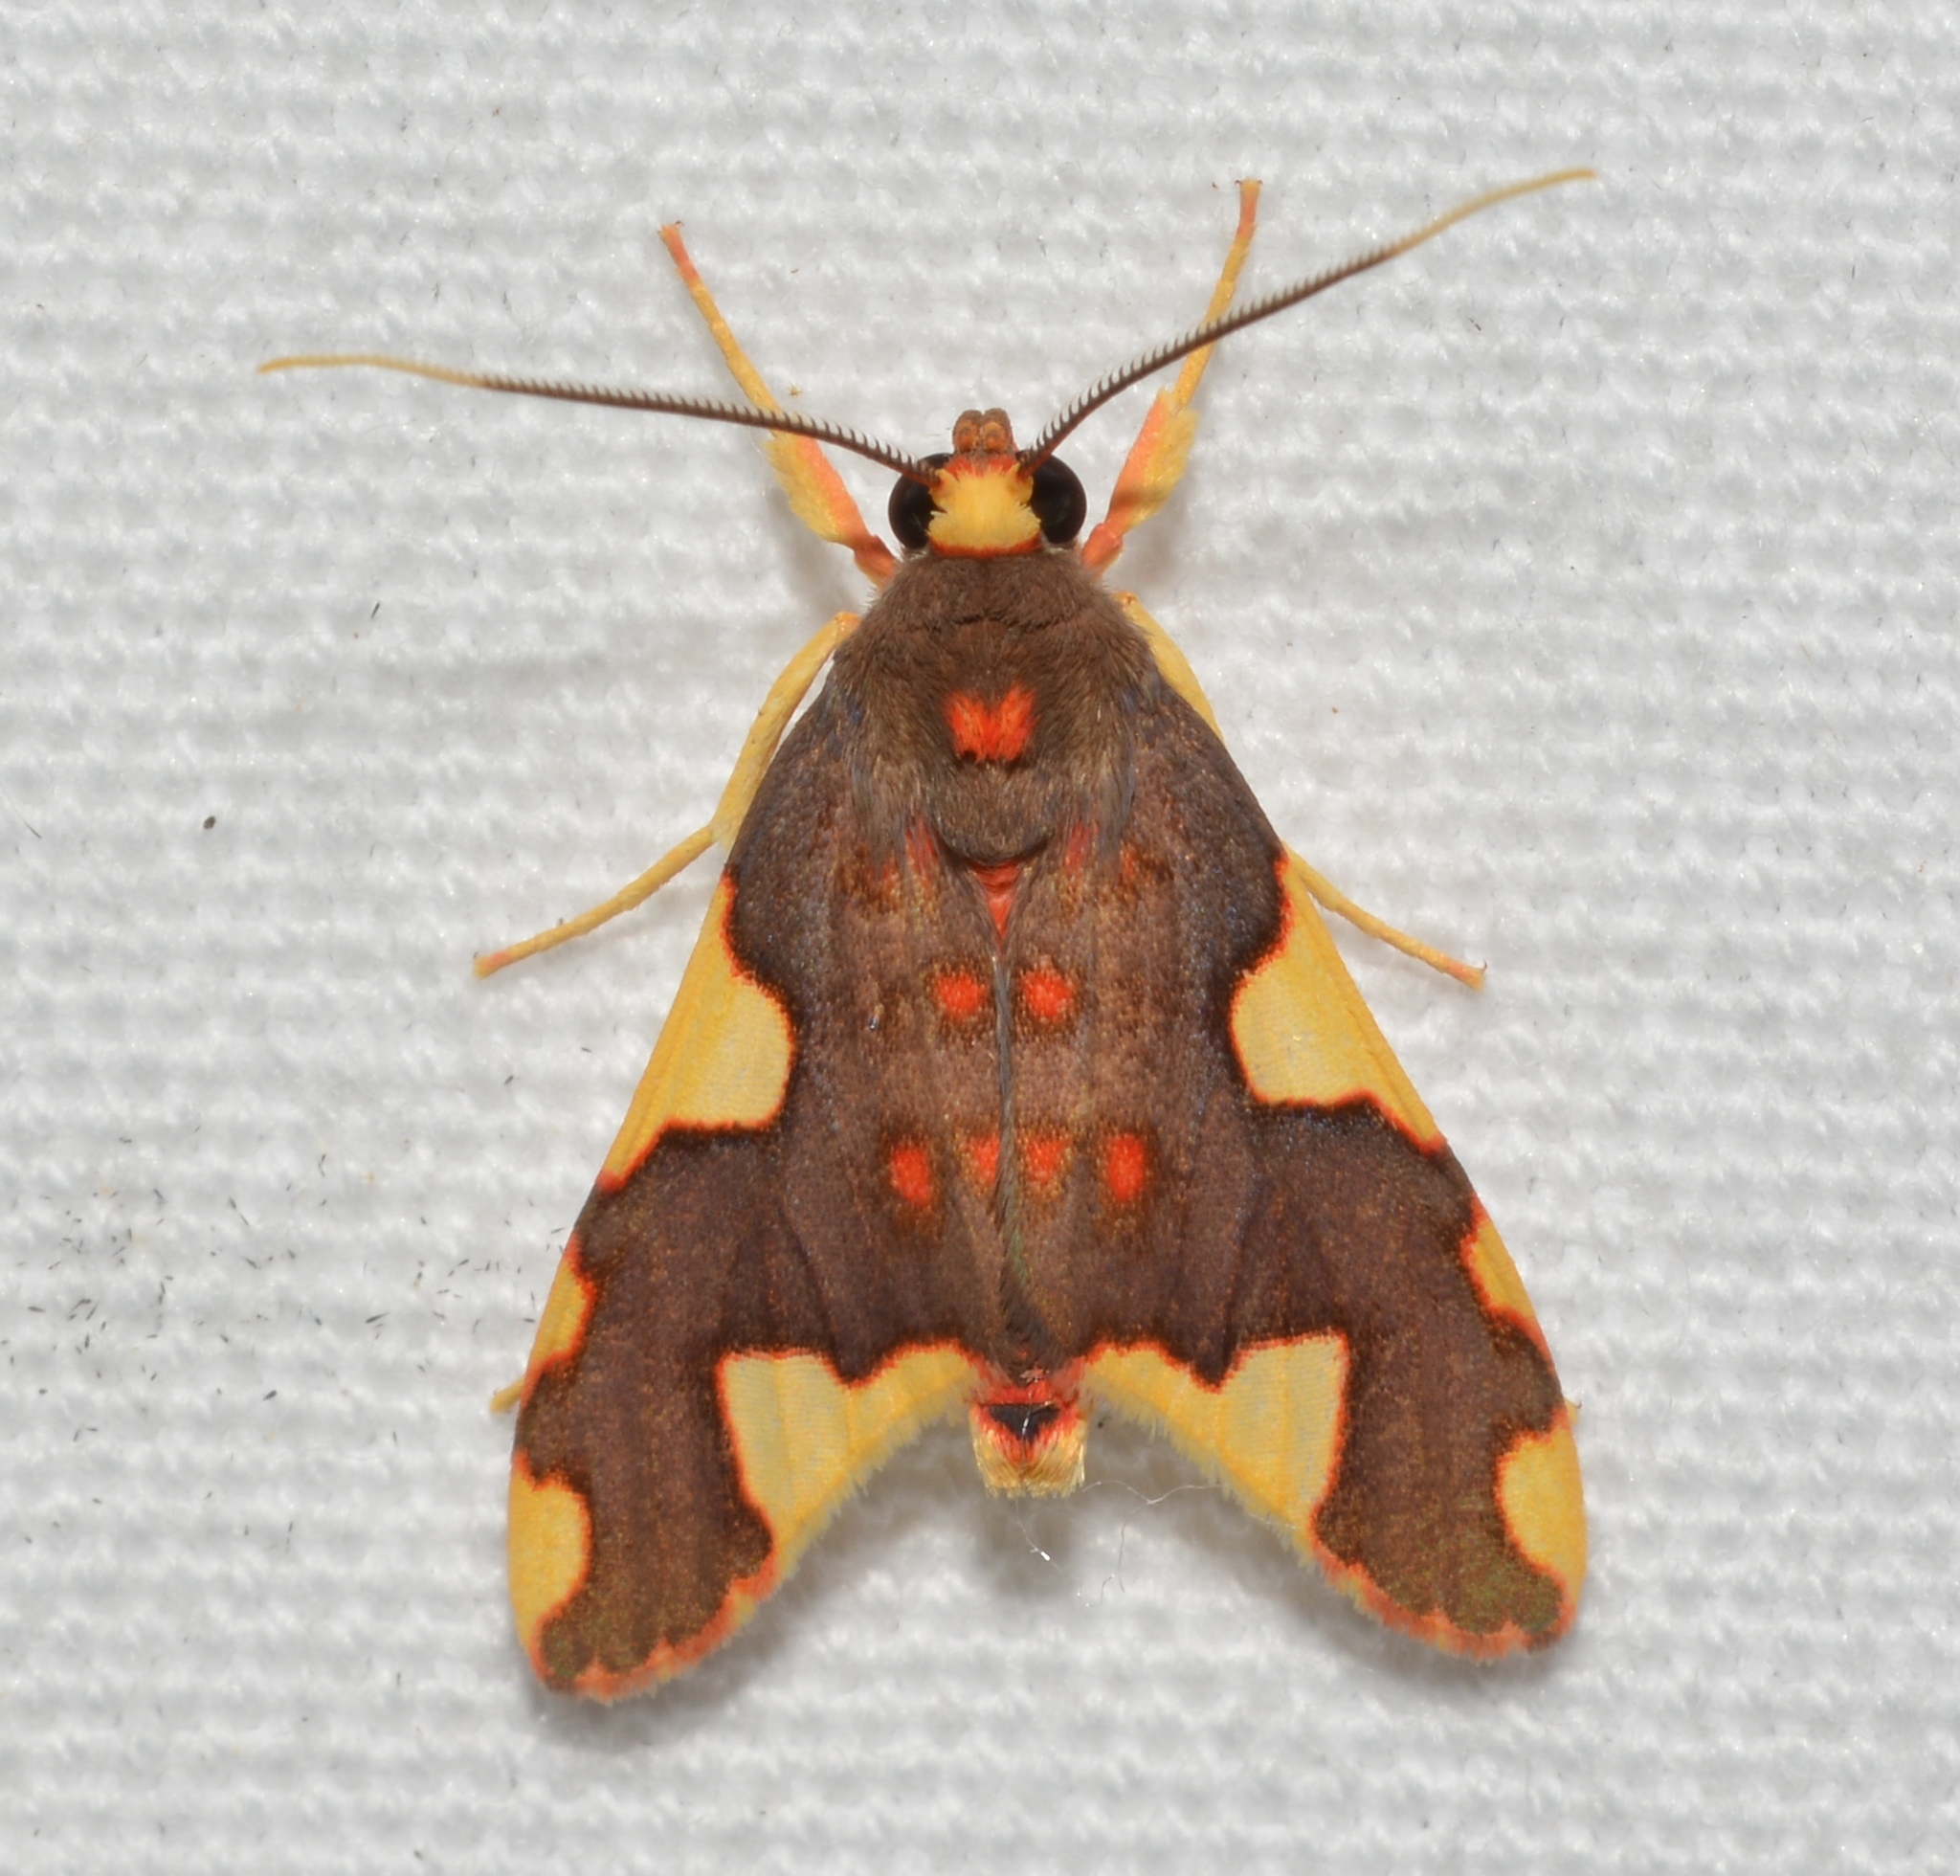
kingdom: Animalia
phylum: Arthropoda
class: Insecta
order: Lepidoptera
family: Erebidae
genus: Trichromia
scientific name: Trichromia
